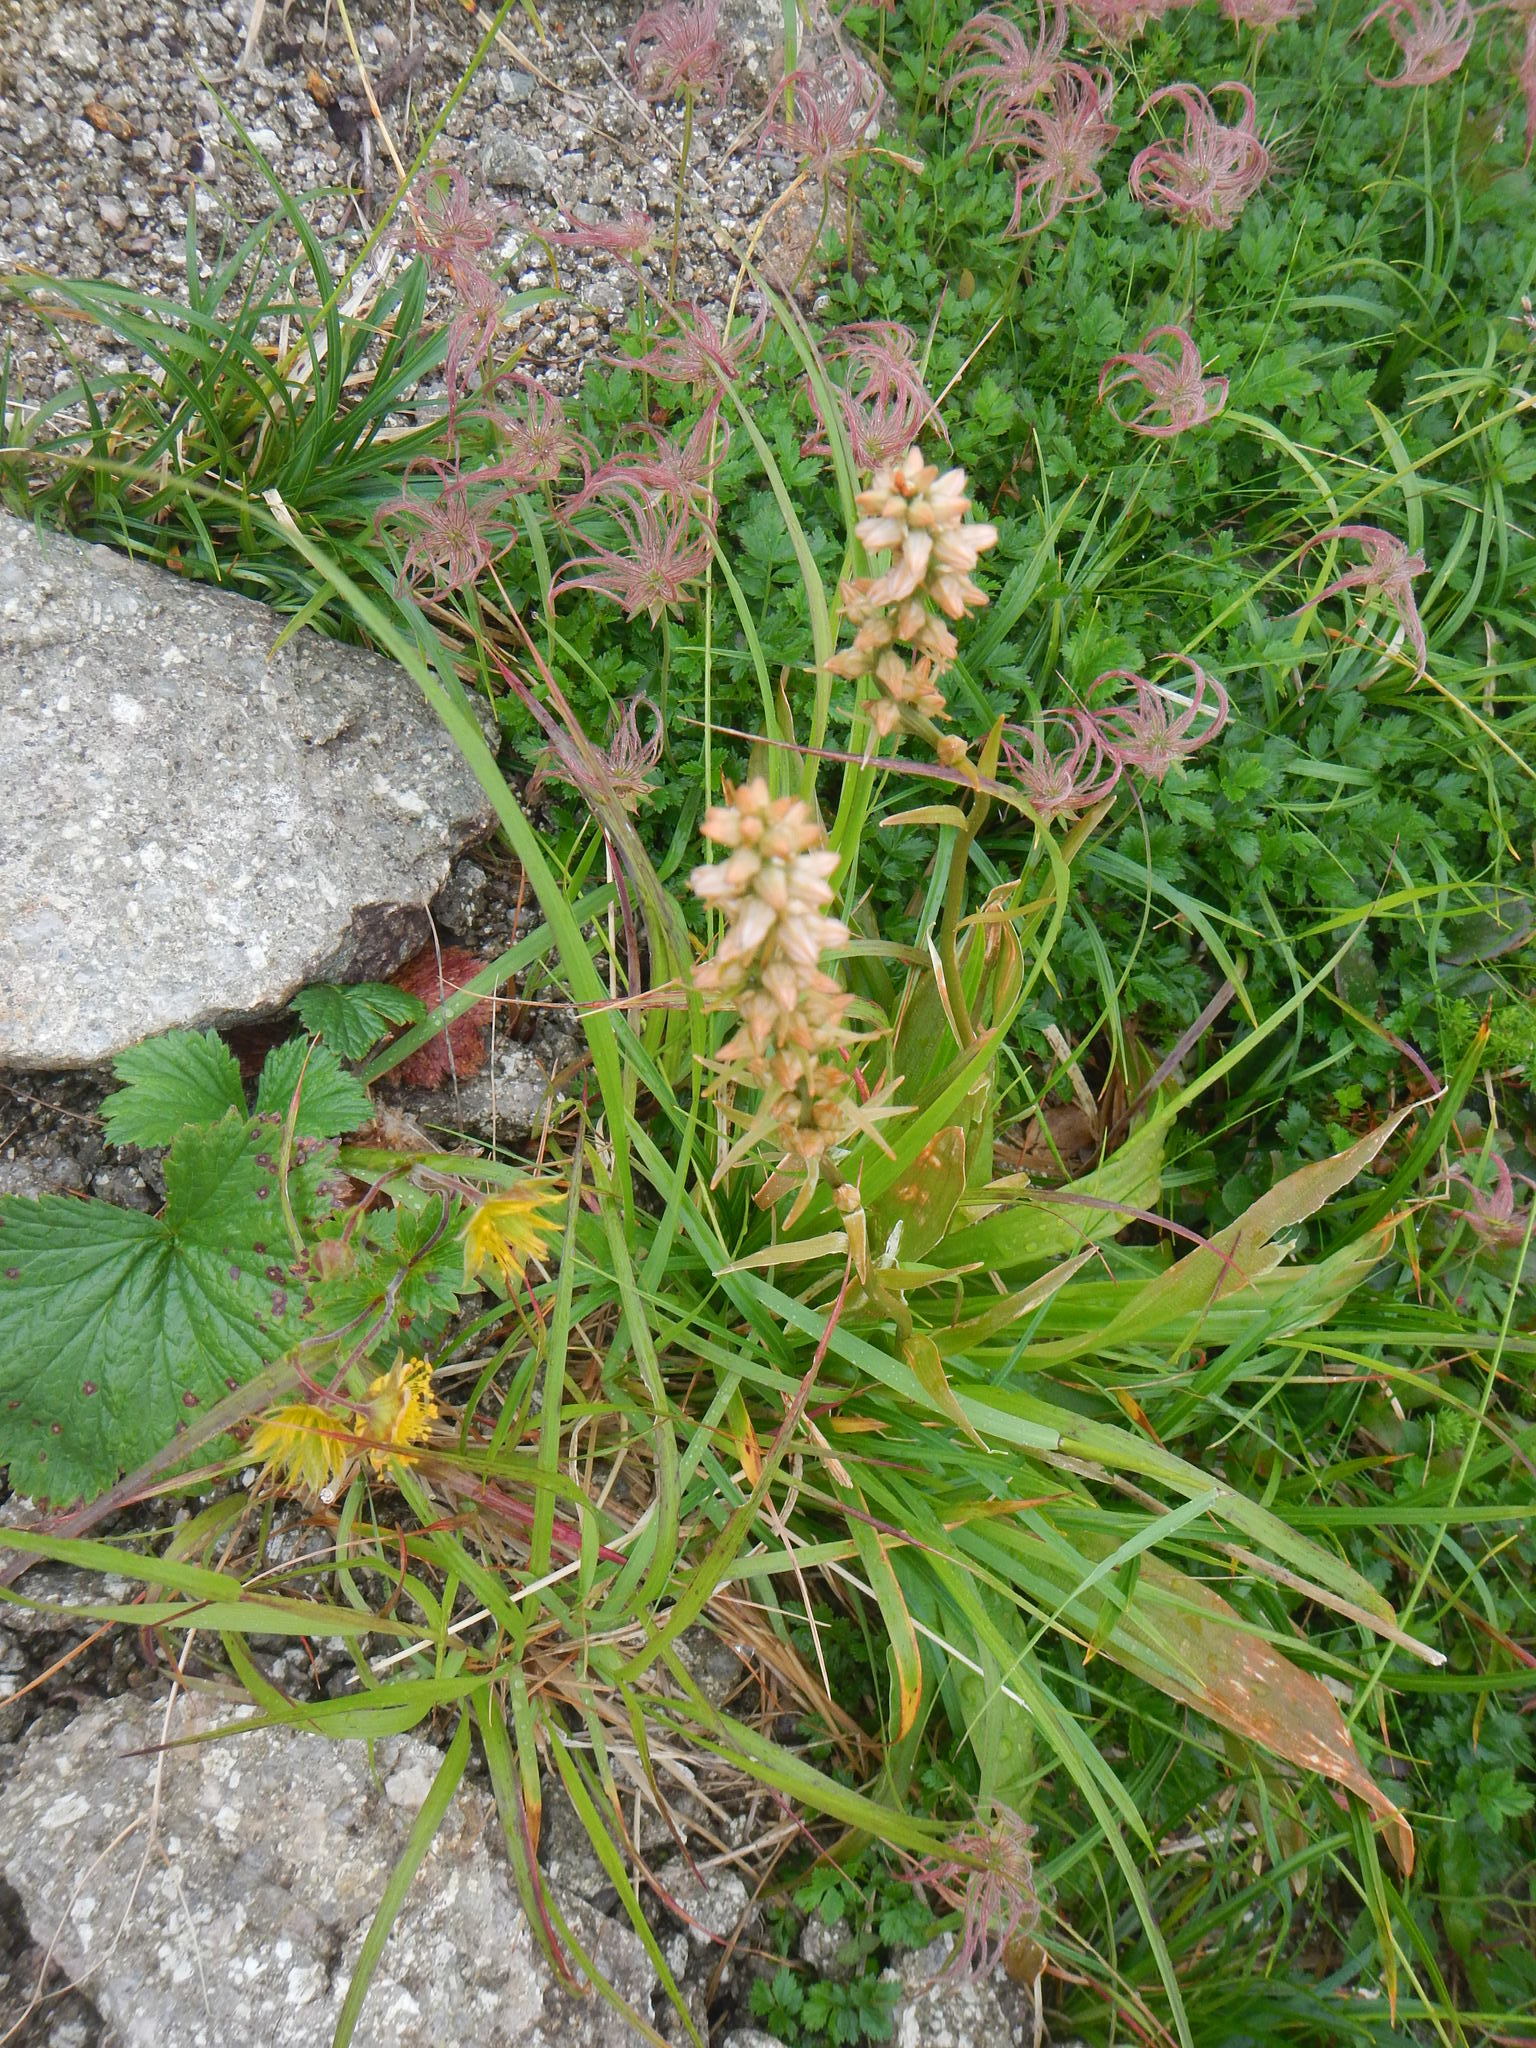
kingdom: Plantae
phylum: Tracheophyta
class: Liliopsida
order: Dioscoreales
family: Nartheciaceae
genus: Aletris
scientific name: Aletris foliata
